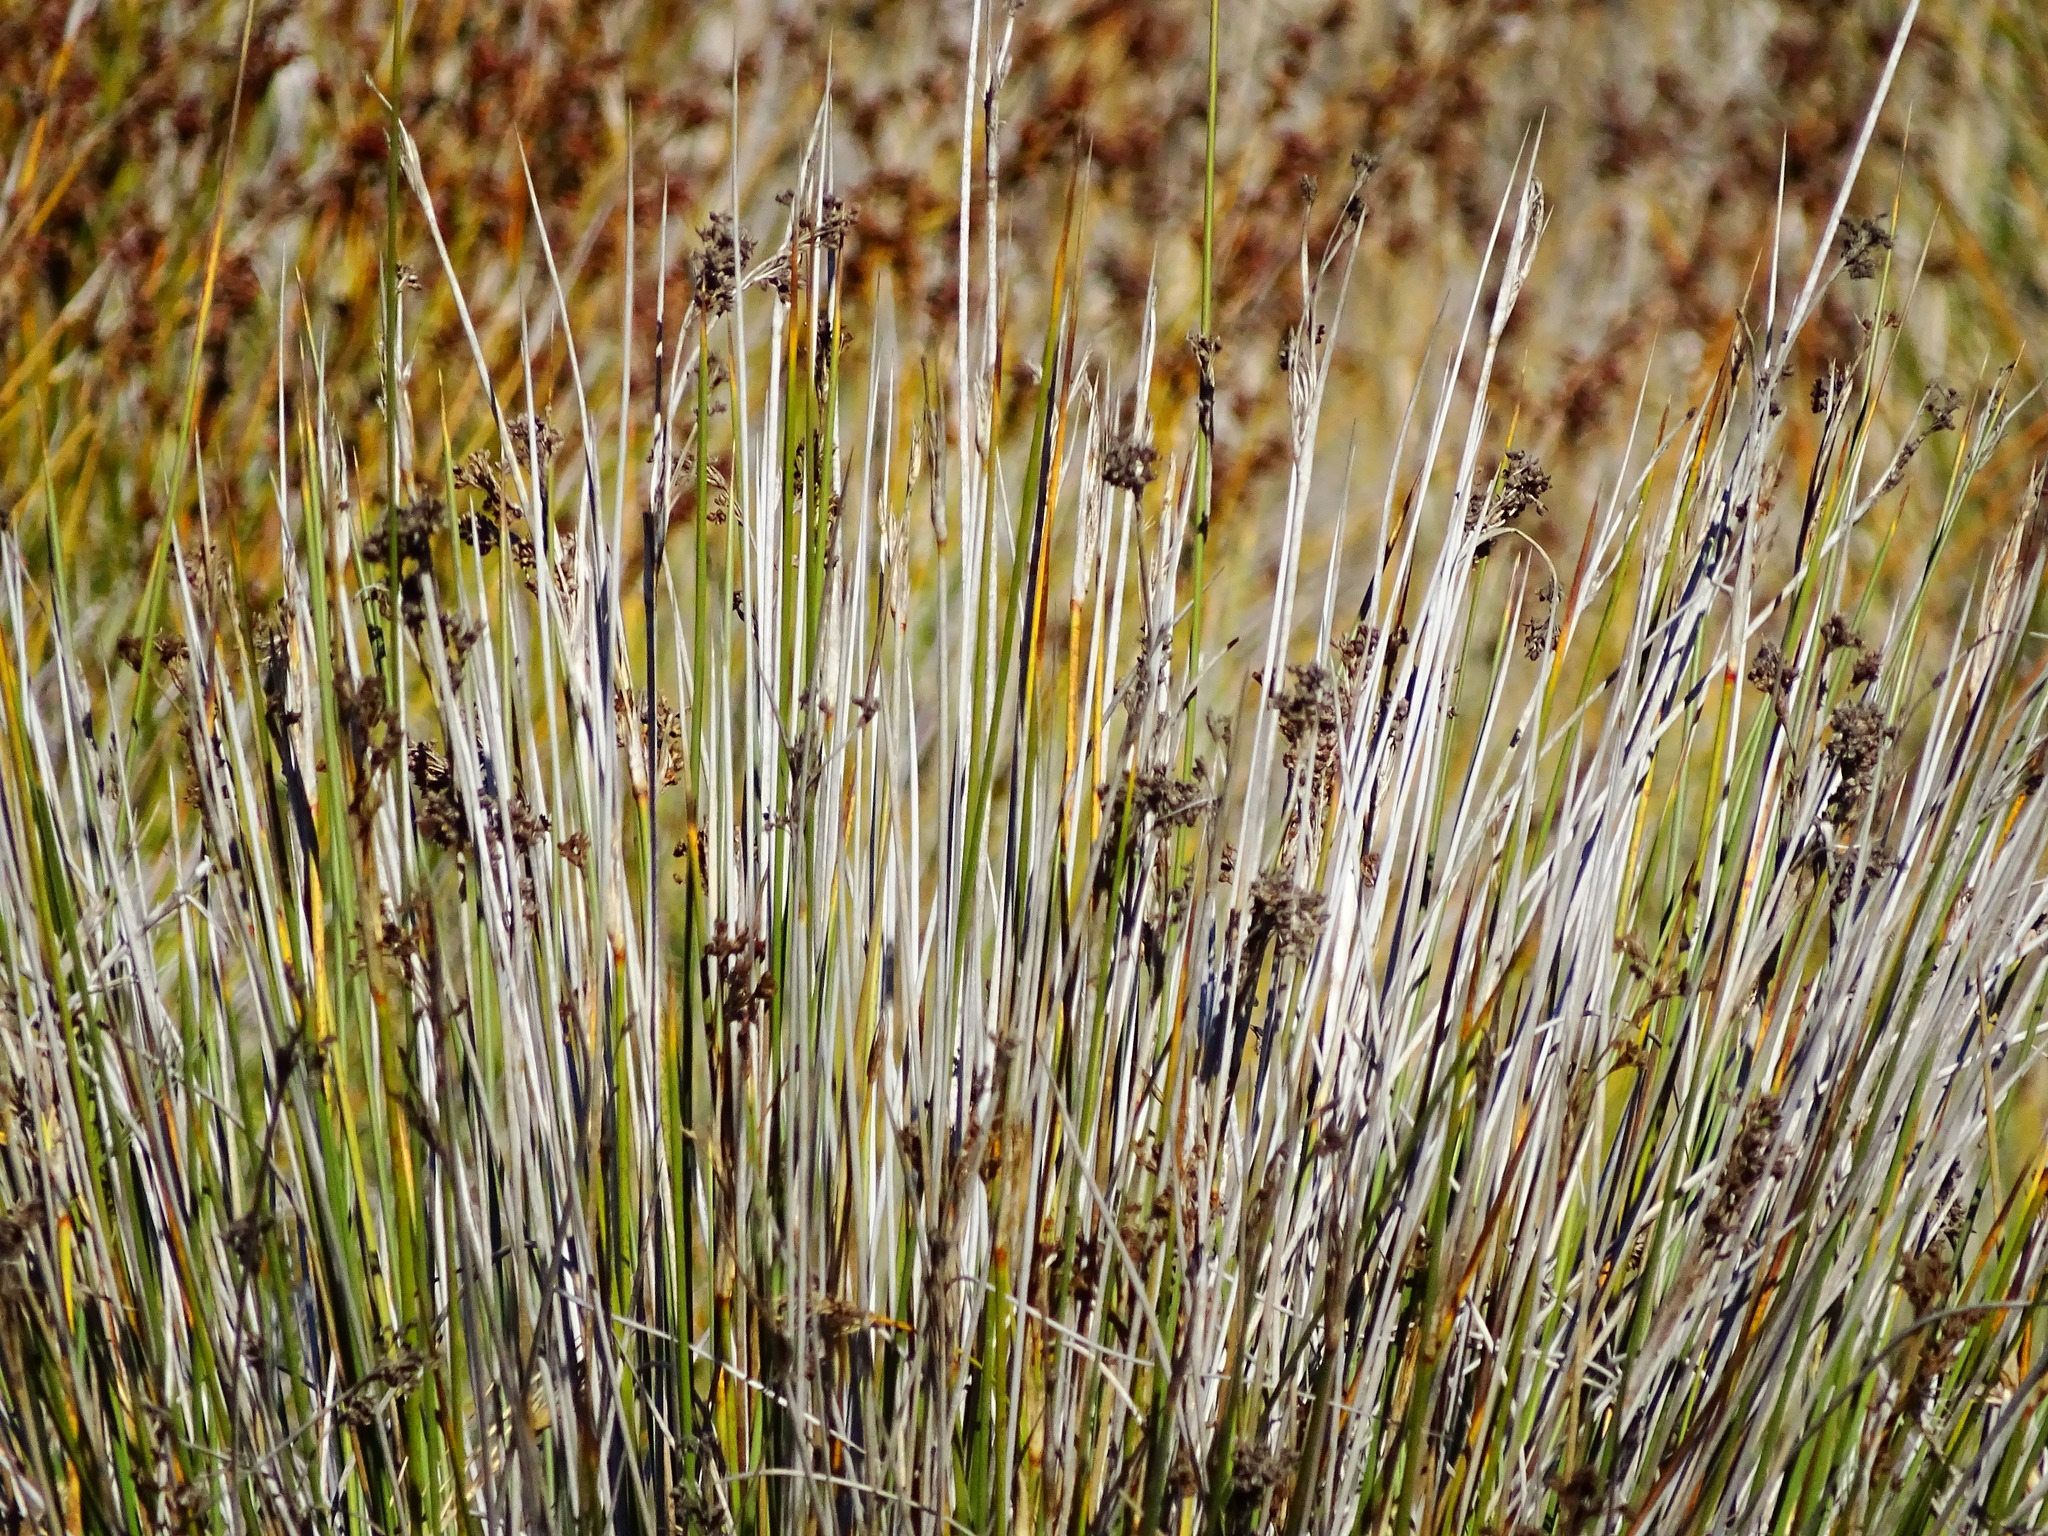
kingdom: Plantae
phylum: Tracheophyta
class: Liliopsida
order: Poales
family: Juncaceae
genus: Juncus
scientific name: Juncus acutus
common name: Sharp rush
